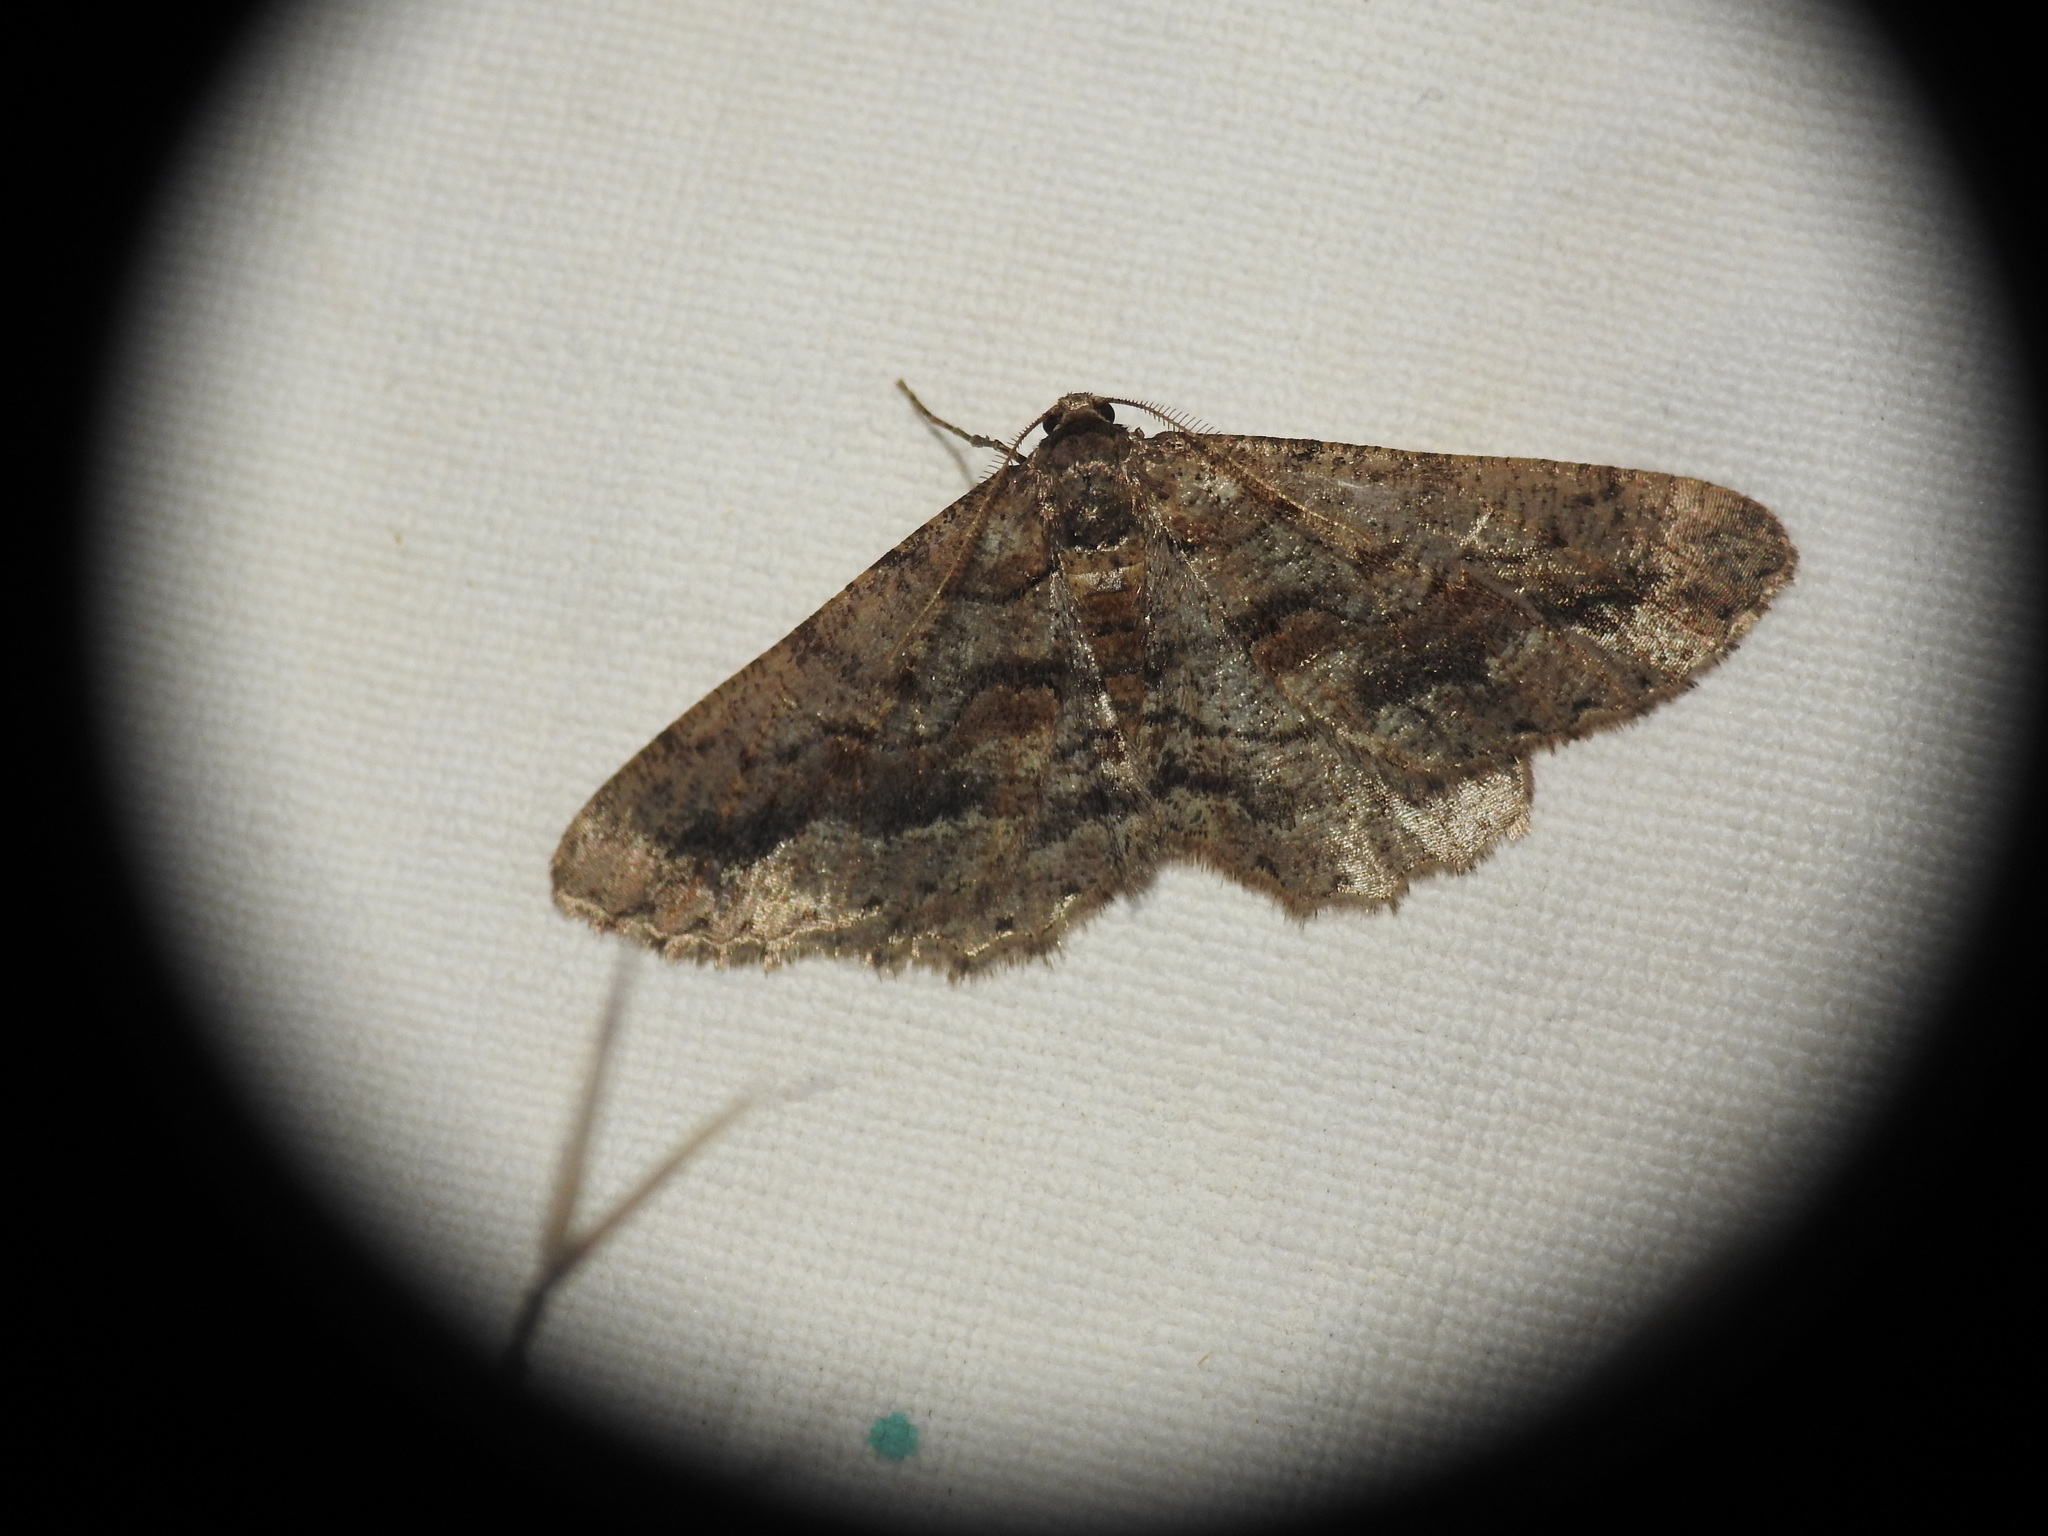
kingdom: Animalia
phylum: Arthropoda
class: Insecta
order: Lepidoptera
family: Geometridae
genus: Agriopis
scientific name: Agriopis bajaria
